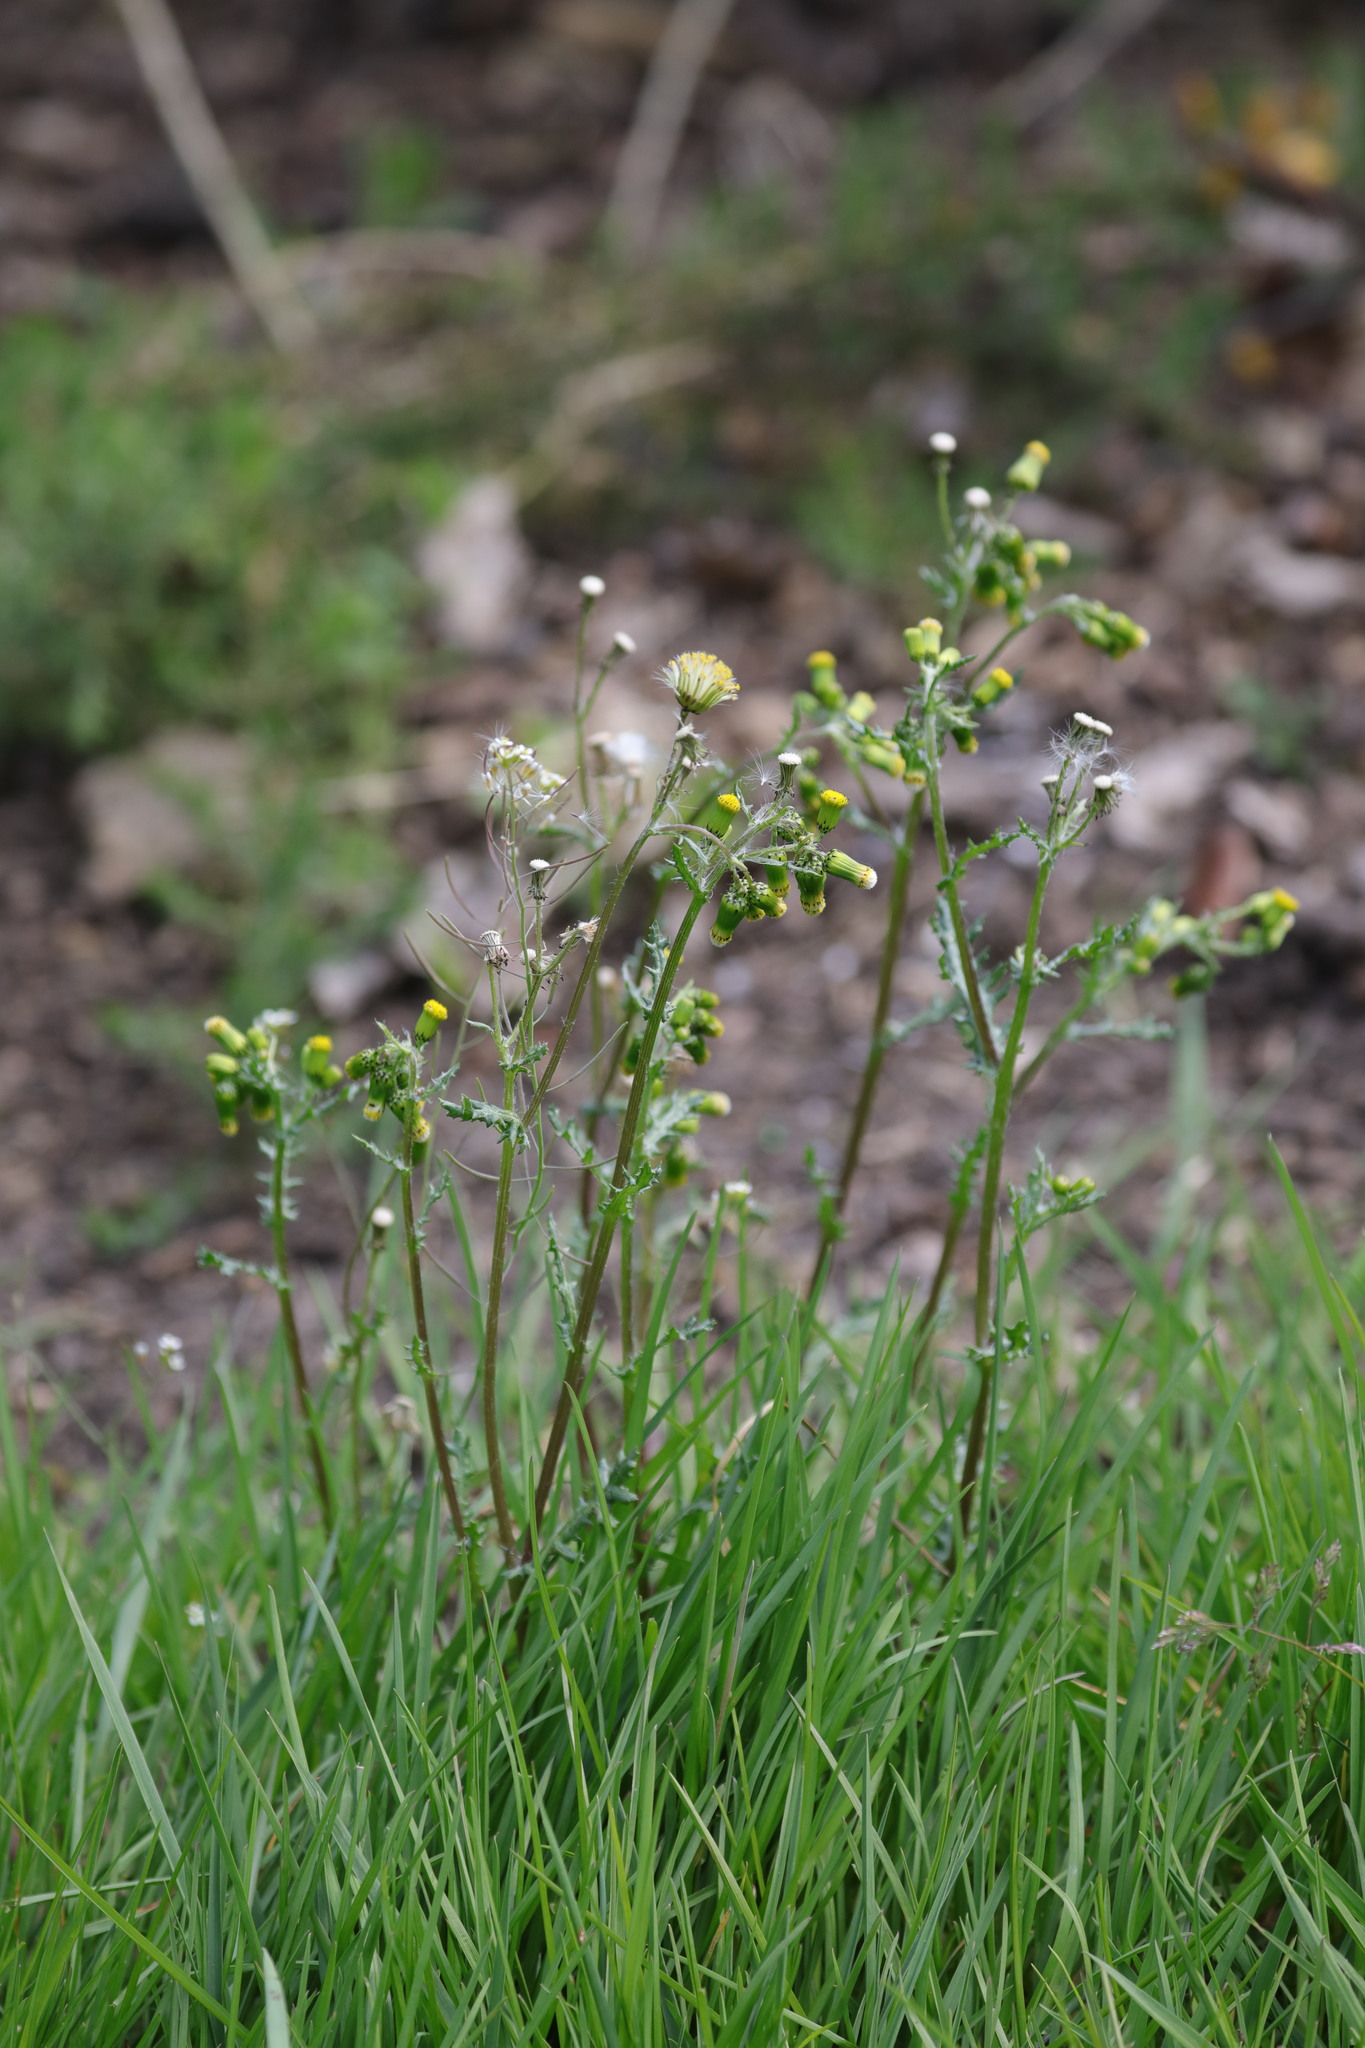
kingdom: Plantae
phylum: Tracheophyta
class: Magnoliopsida
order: Asterales
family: Asteraceae
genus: Senecio
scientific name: Senecio vulgaris
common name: Old-man-in-the-spring
